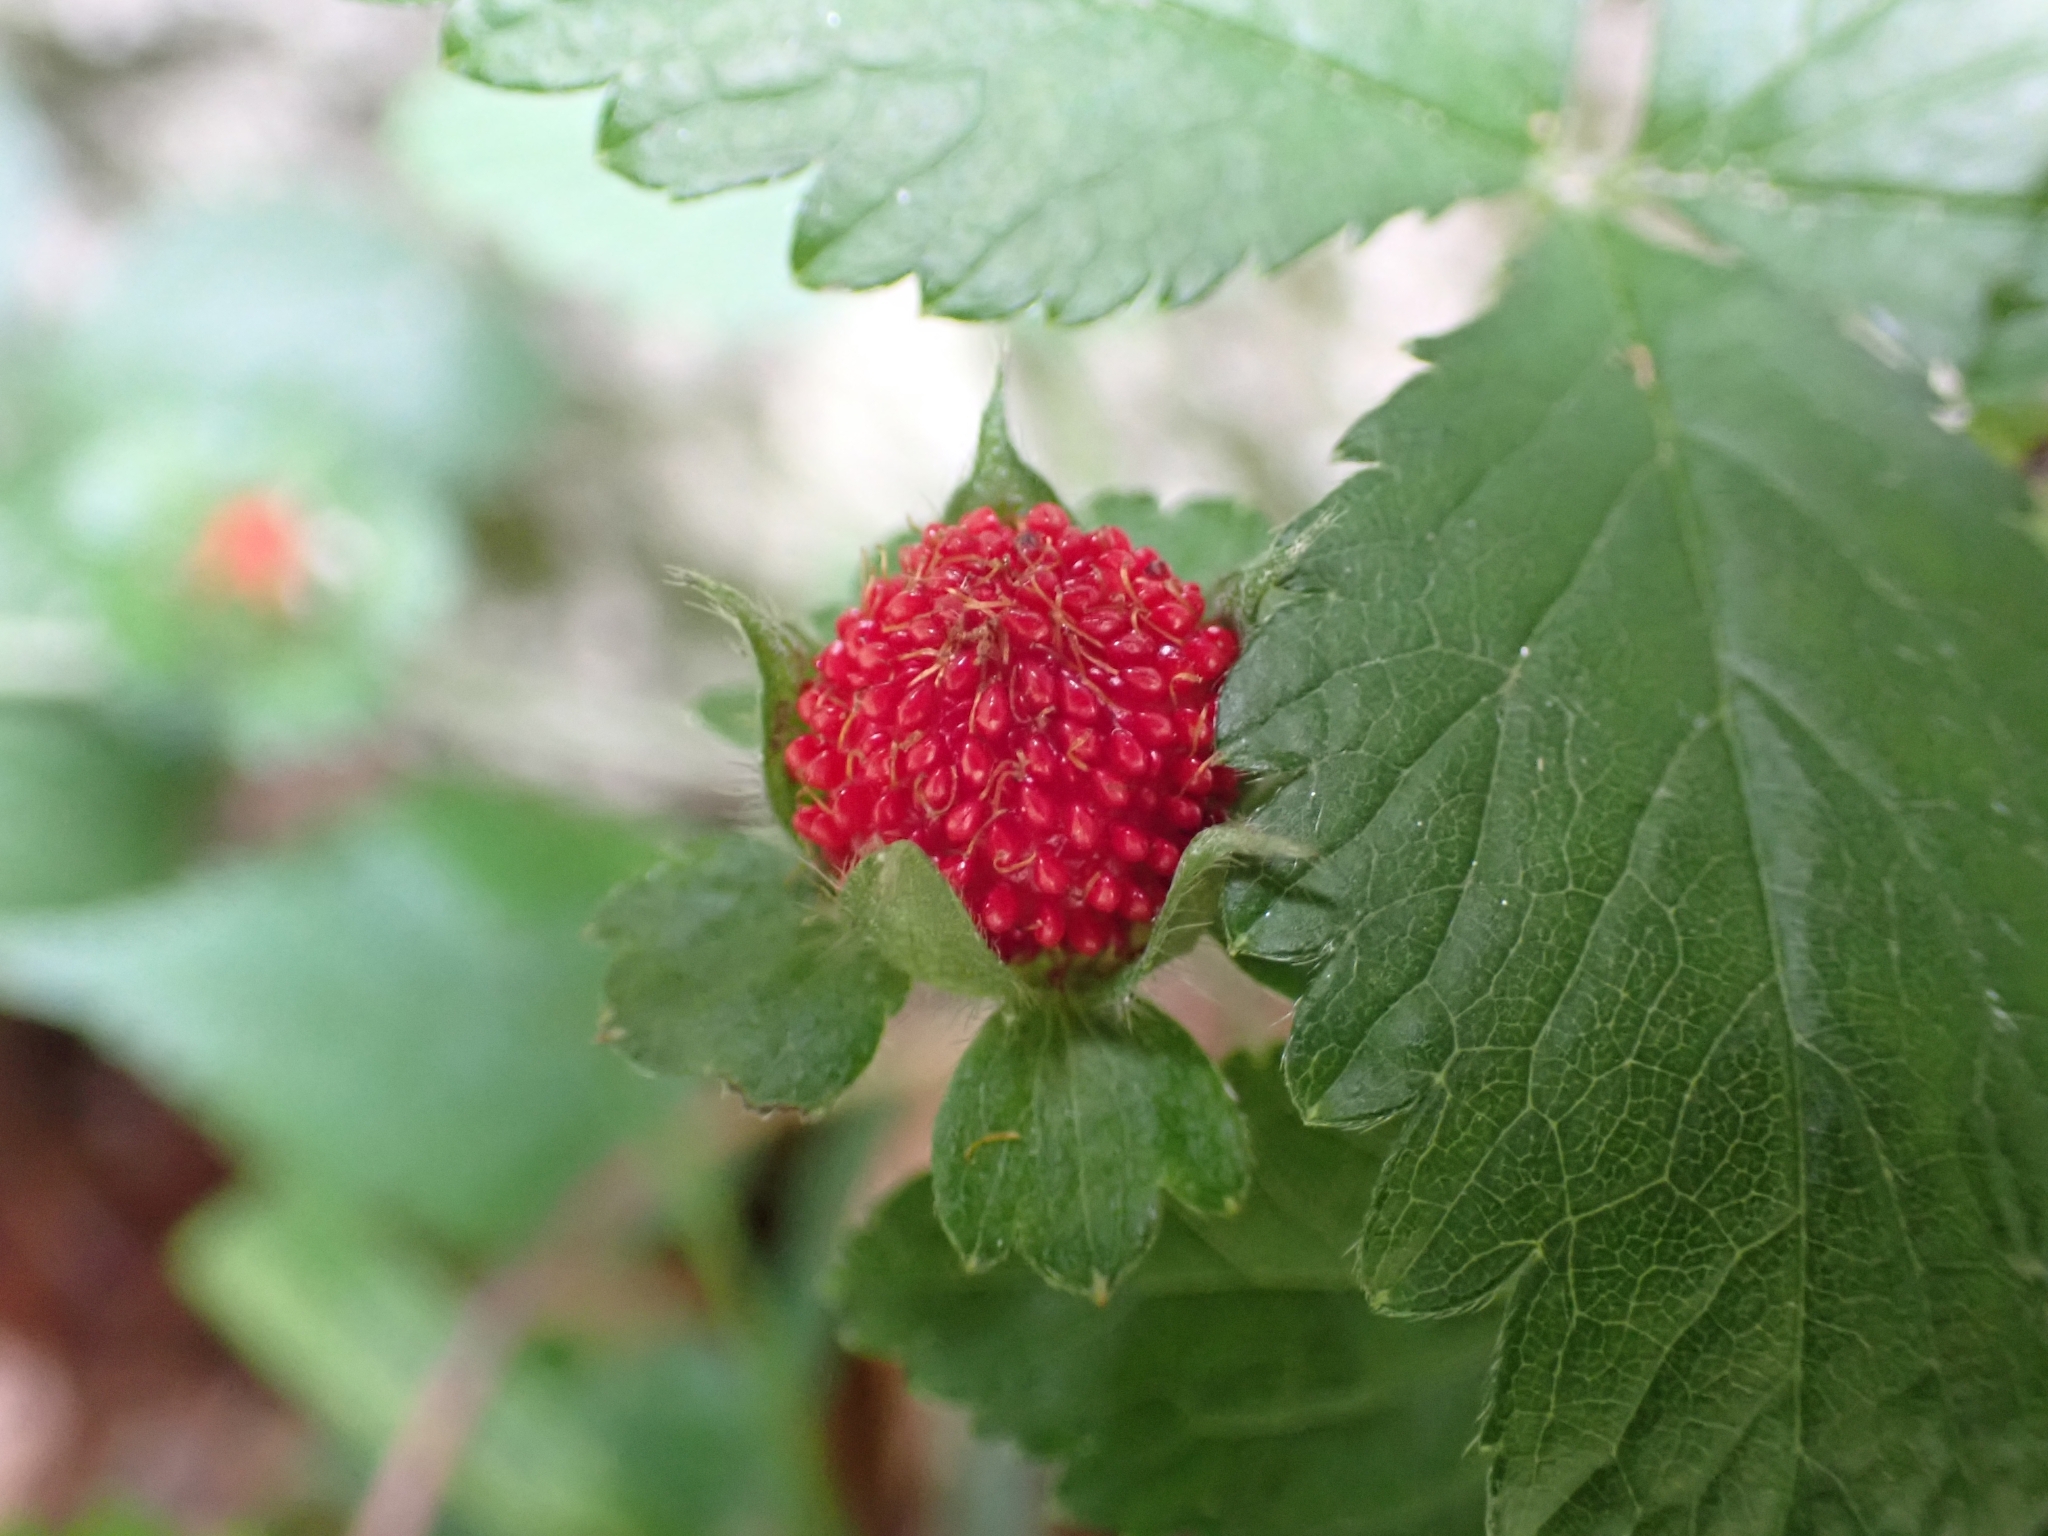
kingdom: Plantae
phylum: Tracheophyta
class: Magnoliopsida
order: Rosales
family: Rosaceae
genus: Potentilla
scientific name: Potentilla indica
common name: Yellow-flowered strawberry
